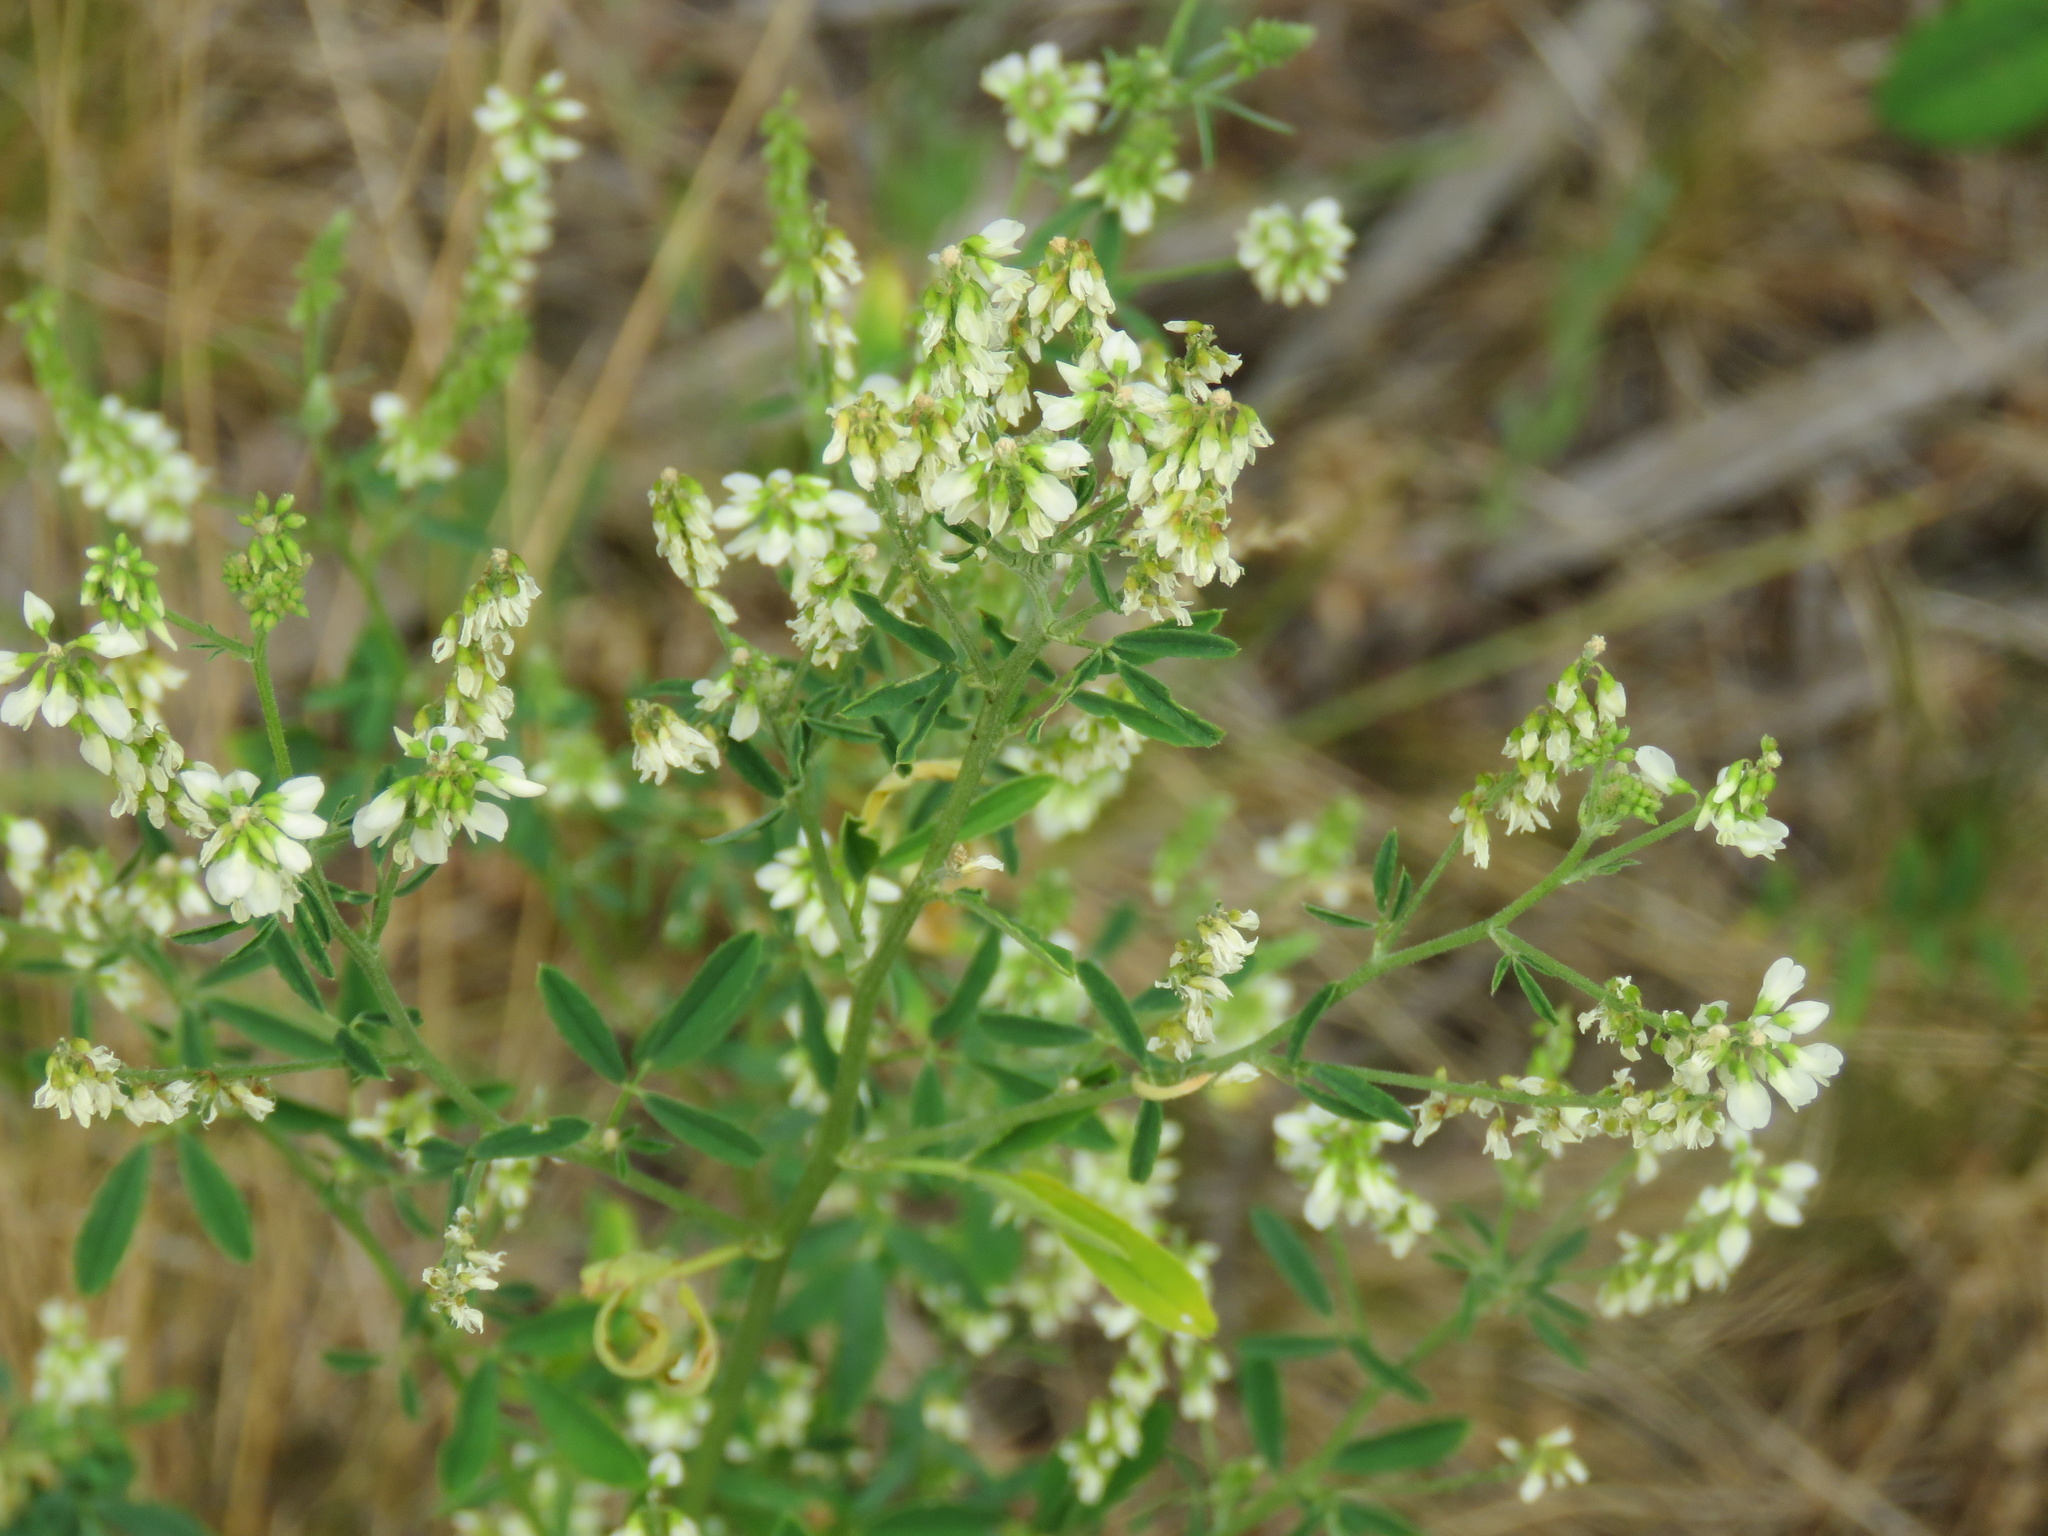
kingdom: Plantae
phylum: Tracheophyta
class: Magnoliopsida
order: Fabales
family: Fabaceae
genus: Melilotus
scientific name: Melilotus albus
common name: White melilot
